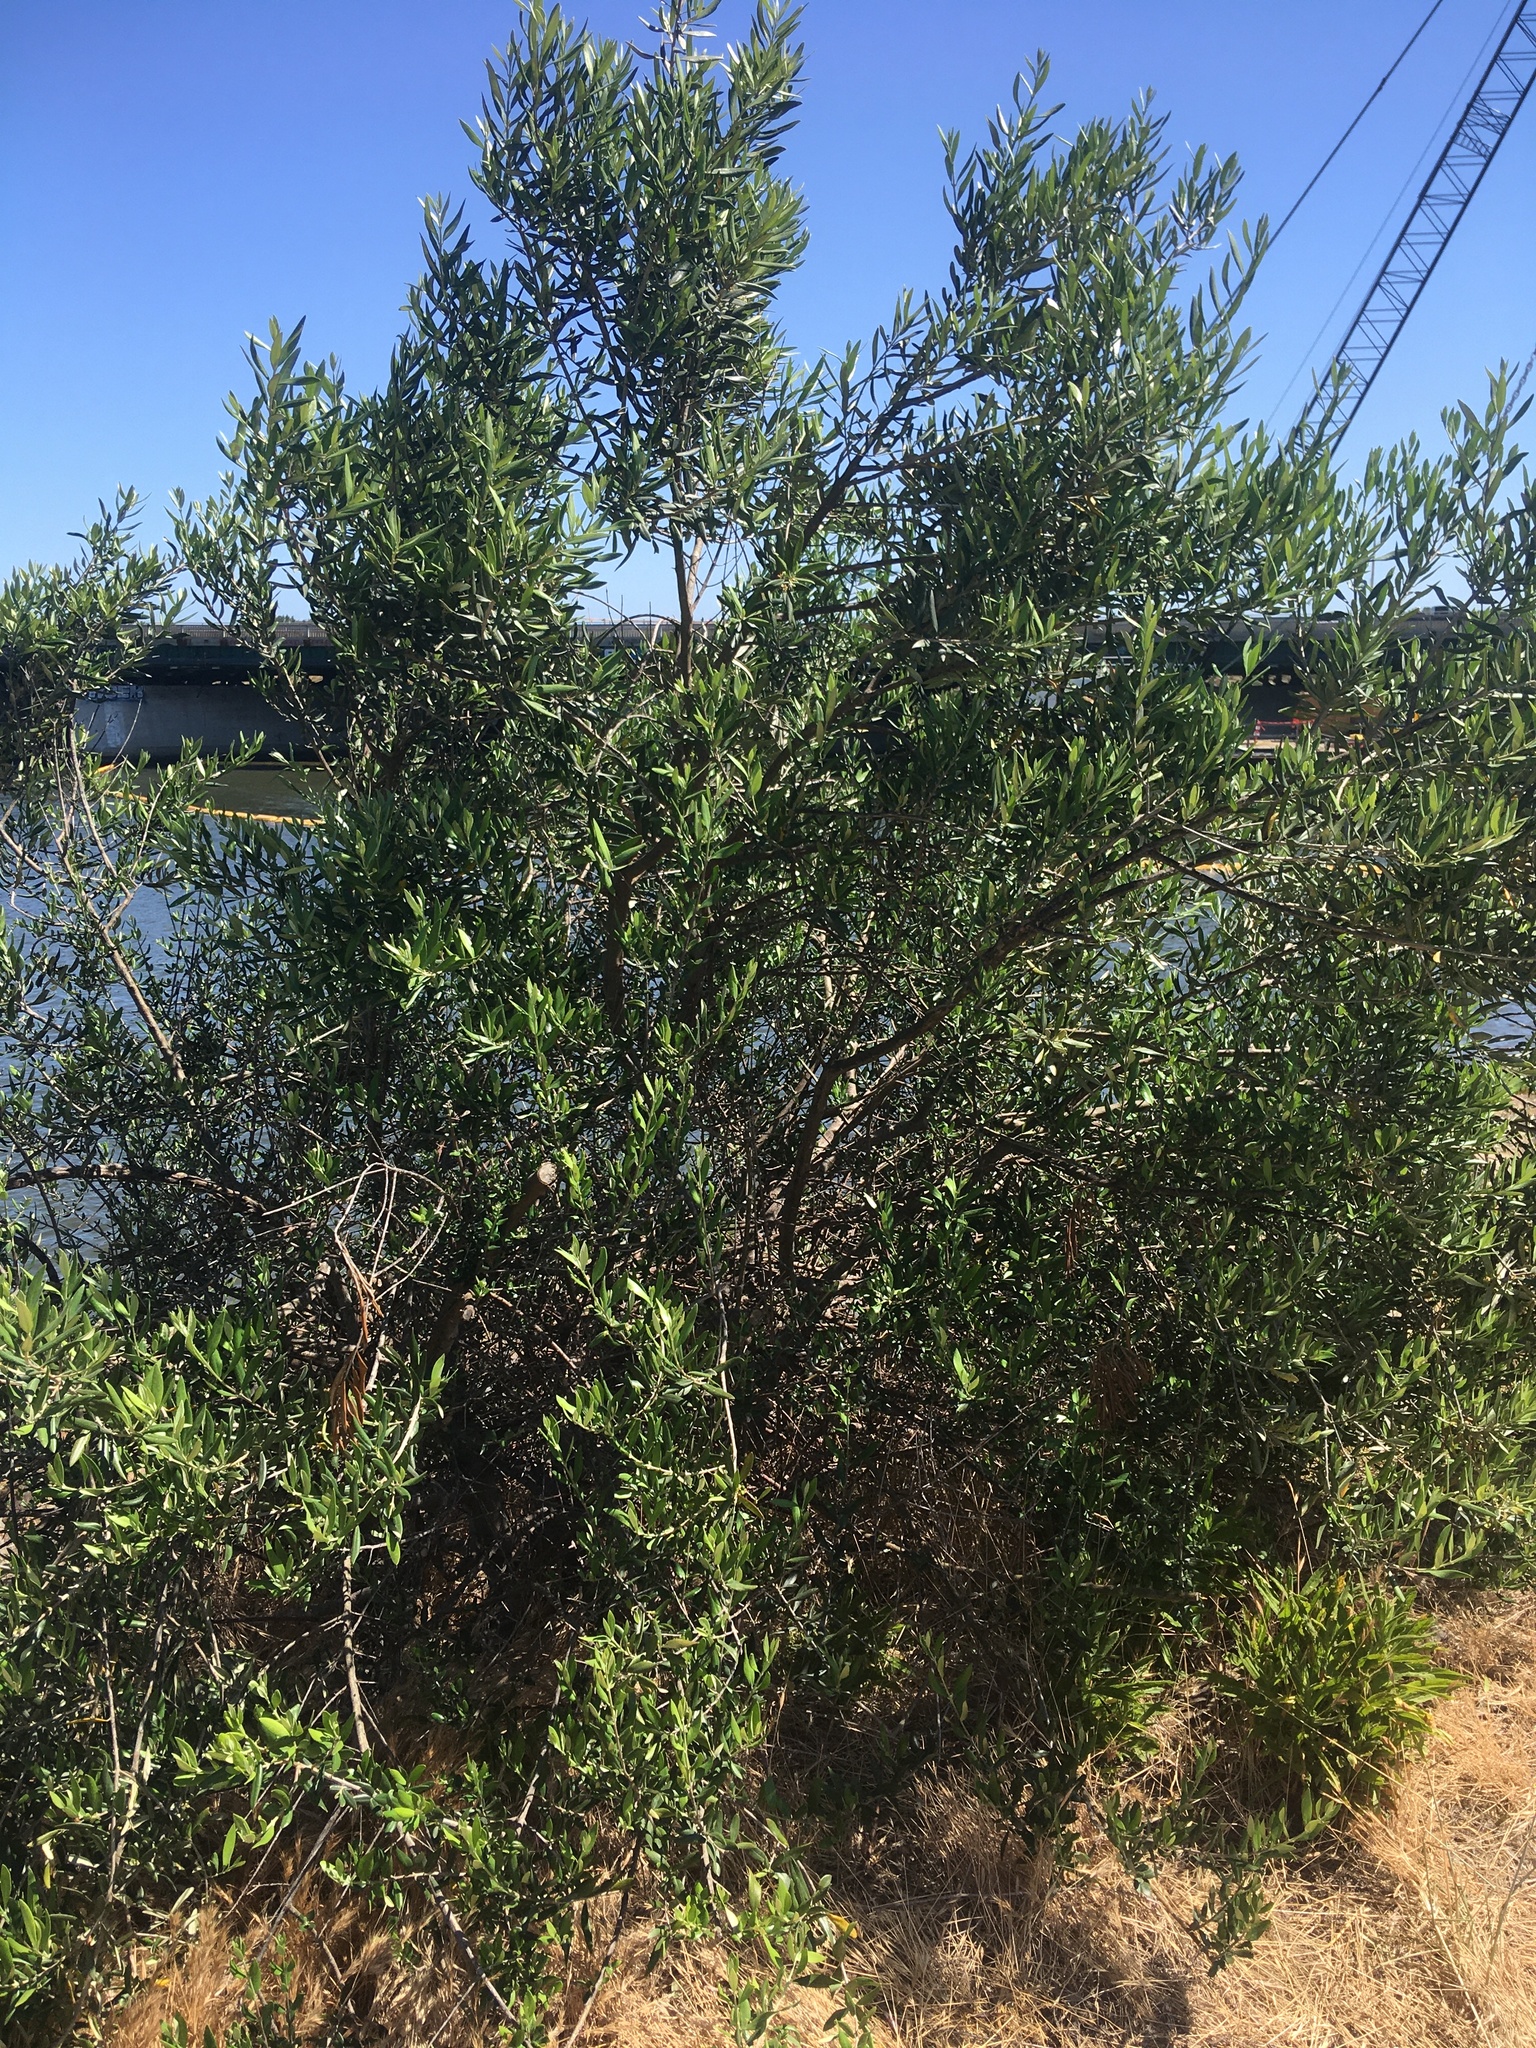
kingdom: Plantae
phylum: Tracheophyta
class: Magnoliopsida
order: Lamiales
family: Oleaceae
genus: Olea
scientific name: Olea europaea
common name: Olive
